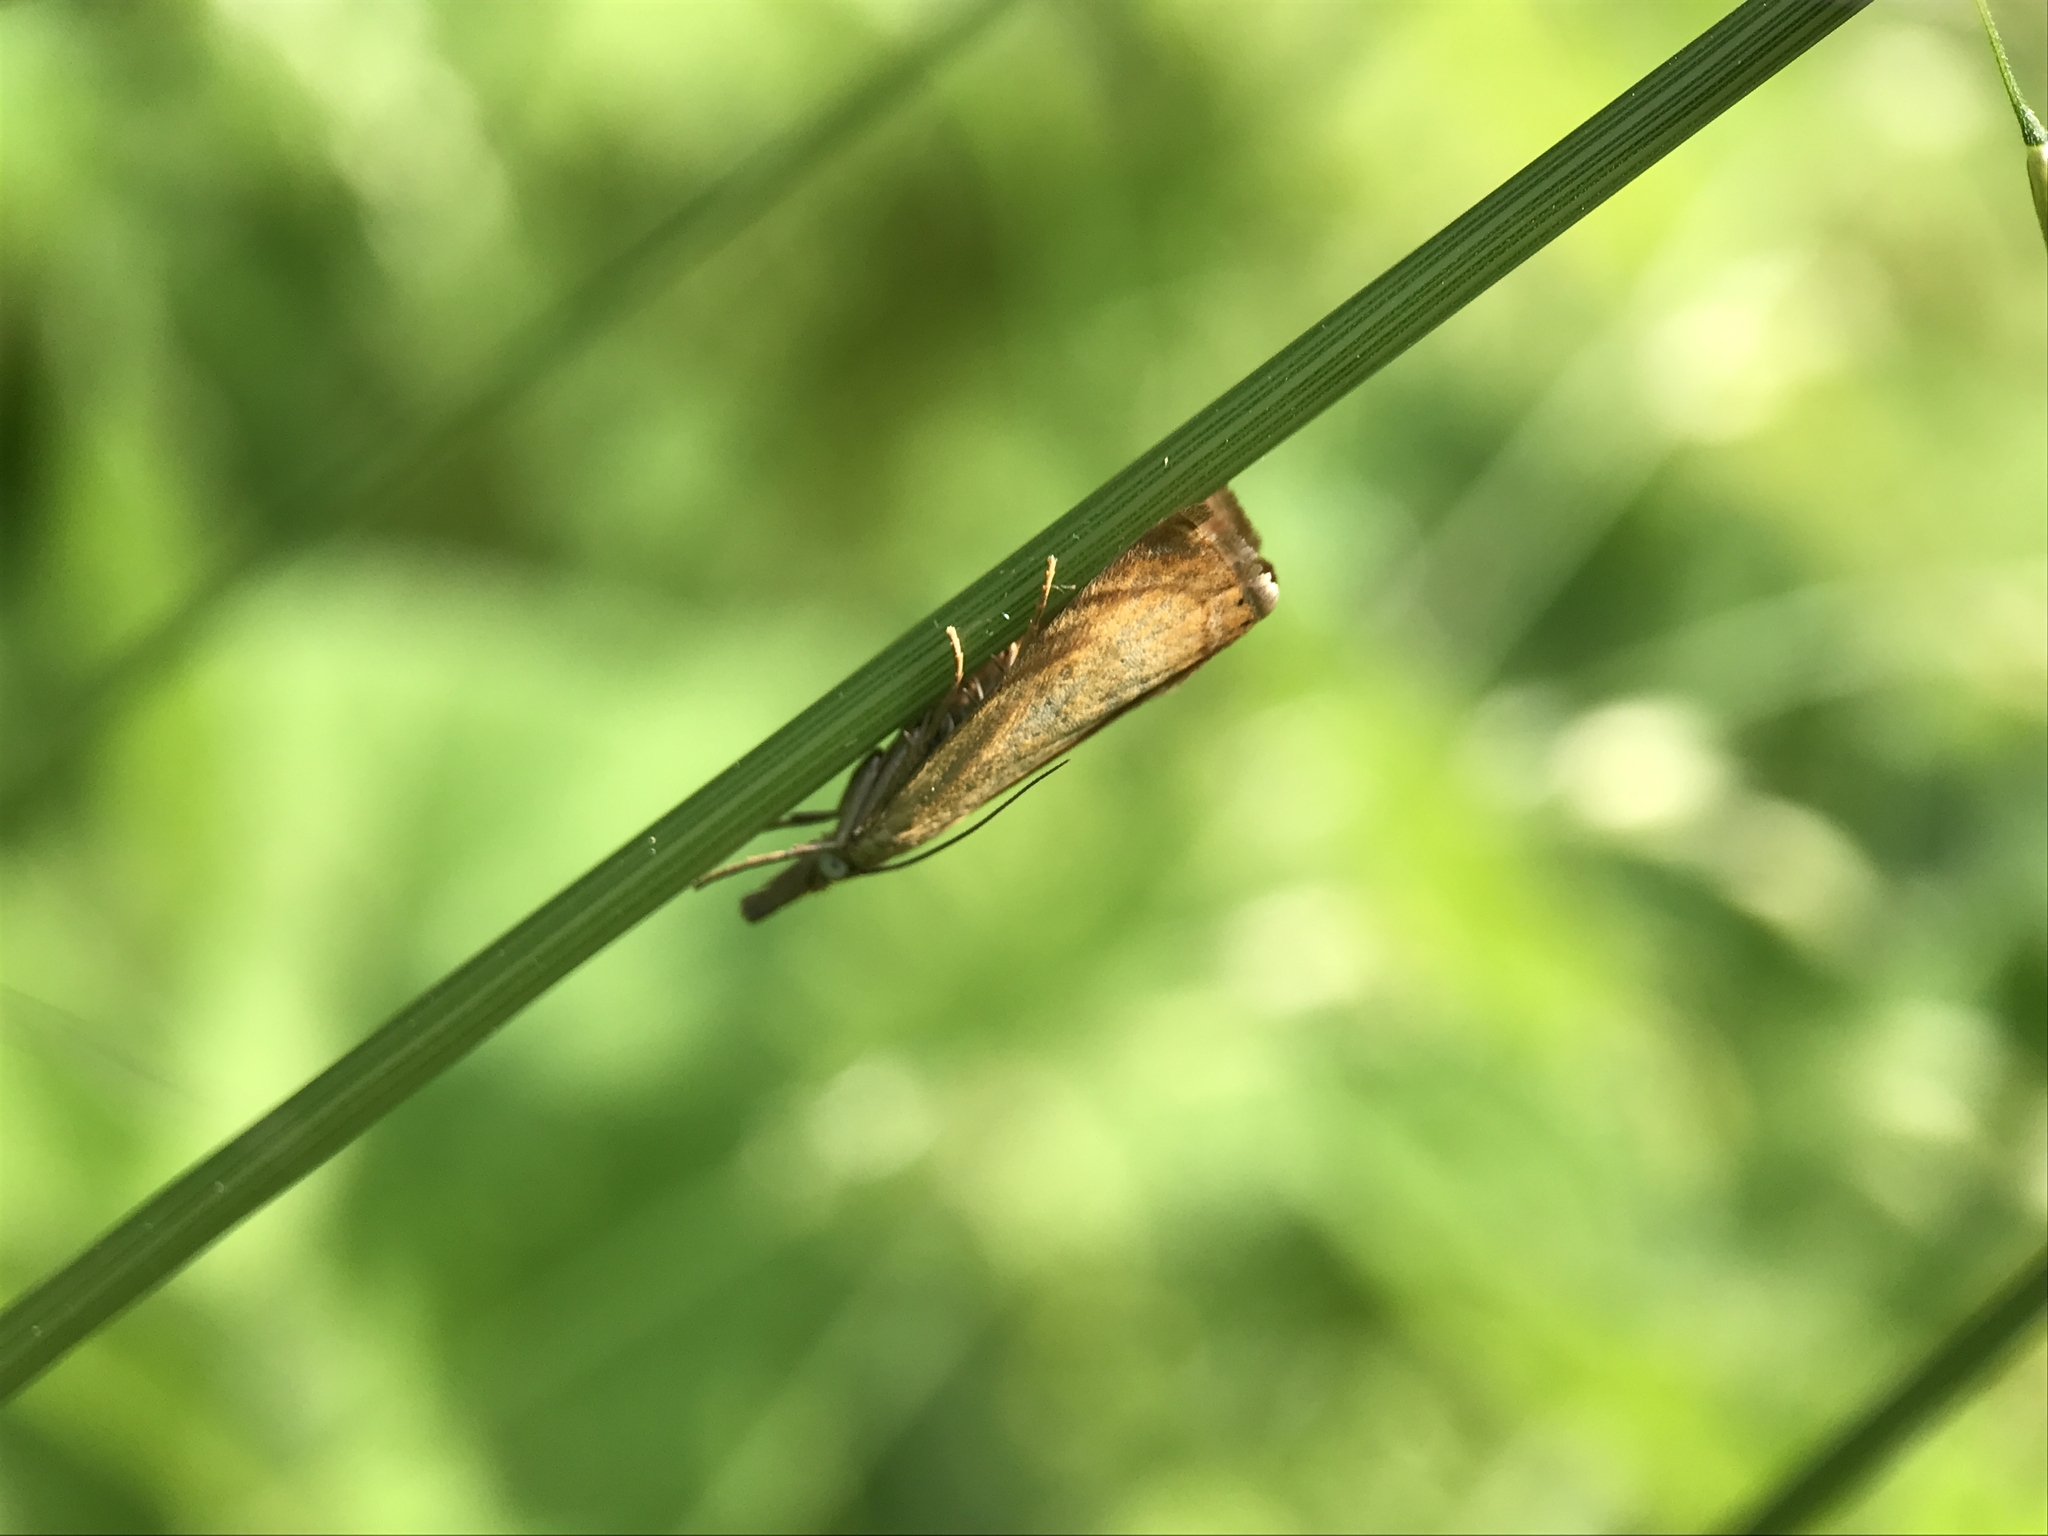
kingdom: Animalia
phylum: Arthropoda
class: Insecta
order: Lepidoptera
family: Crambidae
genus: Chrysoteuchia
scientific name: Chrysoteuchia culmella
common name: Garden grass-veneer
